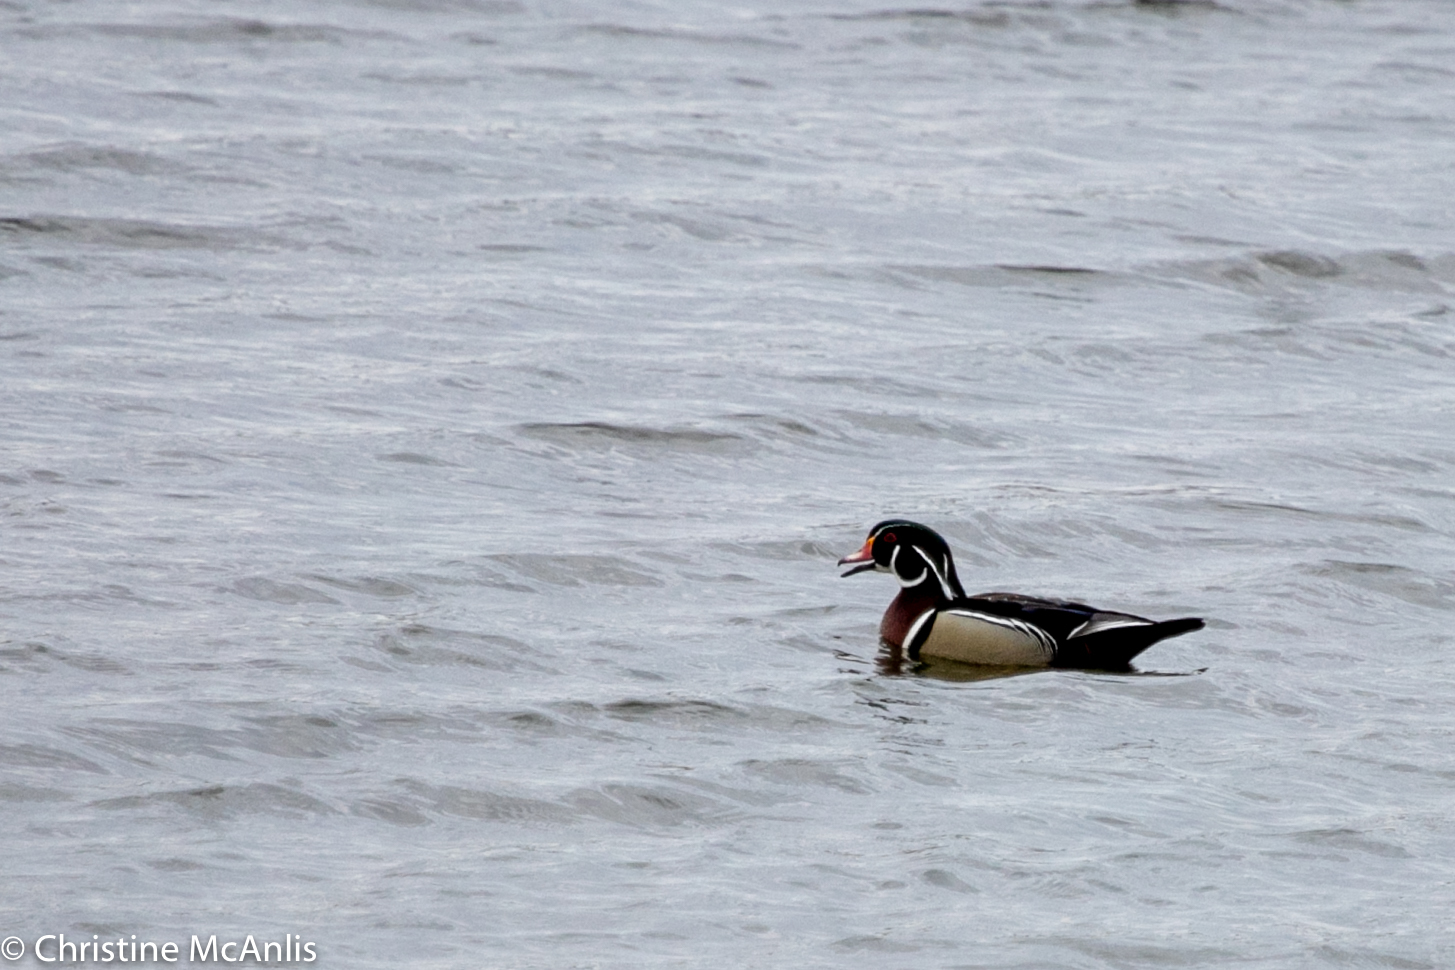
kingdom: Animalia
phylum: Chordata
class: Aves
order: Anseriformes
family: Anatidae
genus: Aix
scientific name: Aix sponsa
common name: Wood duck
